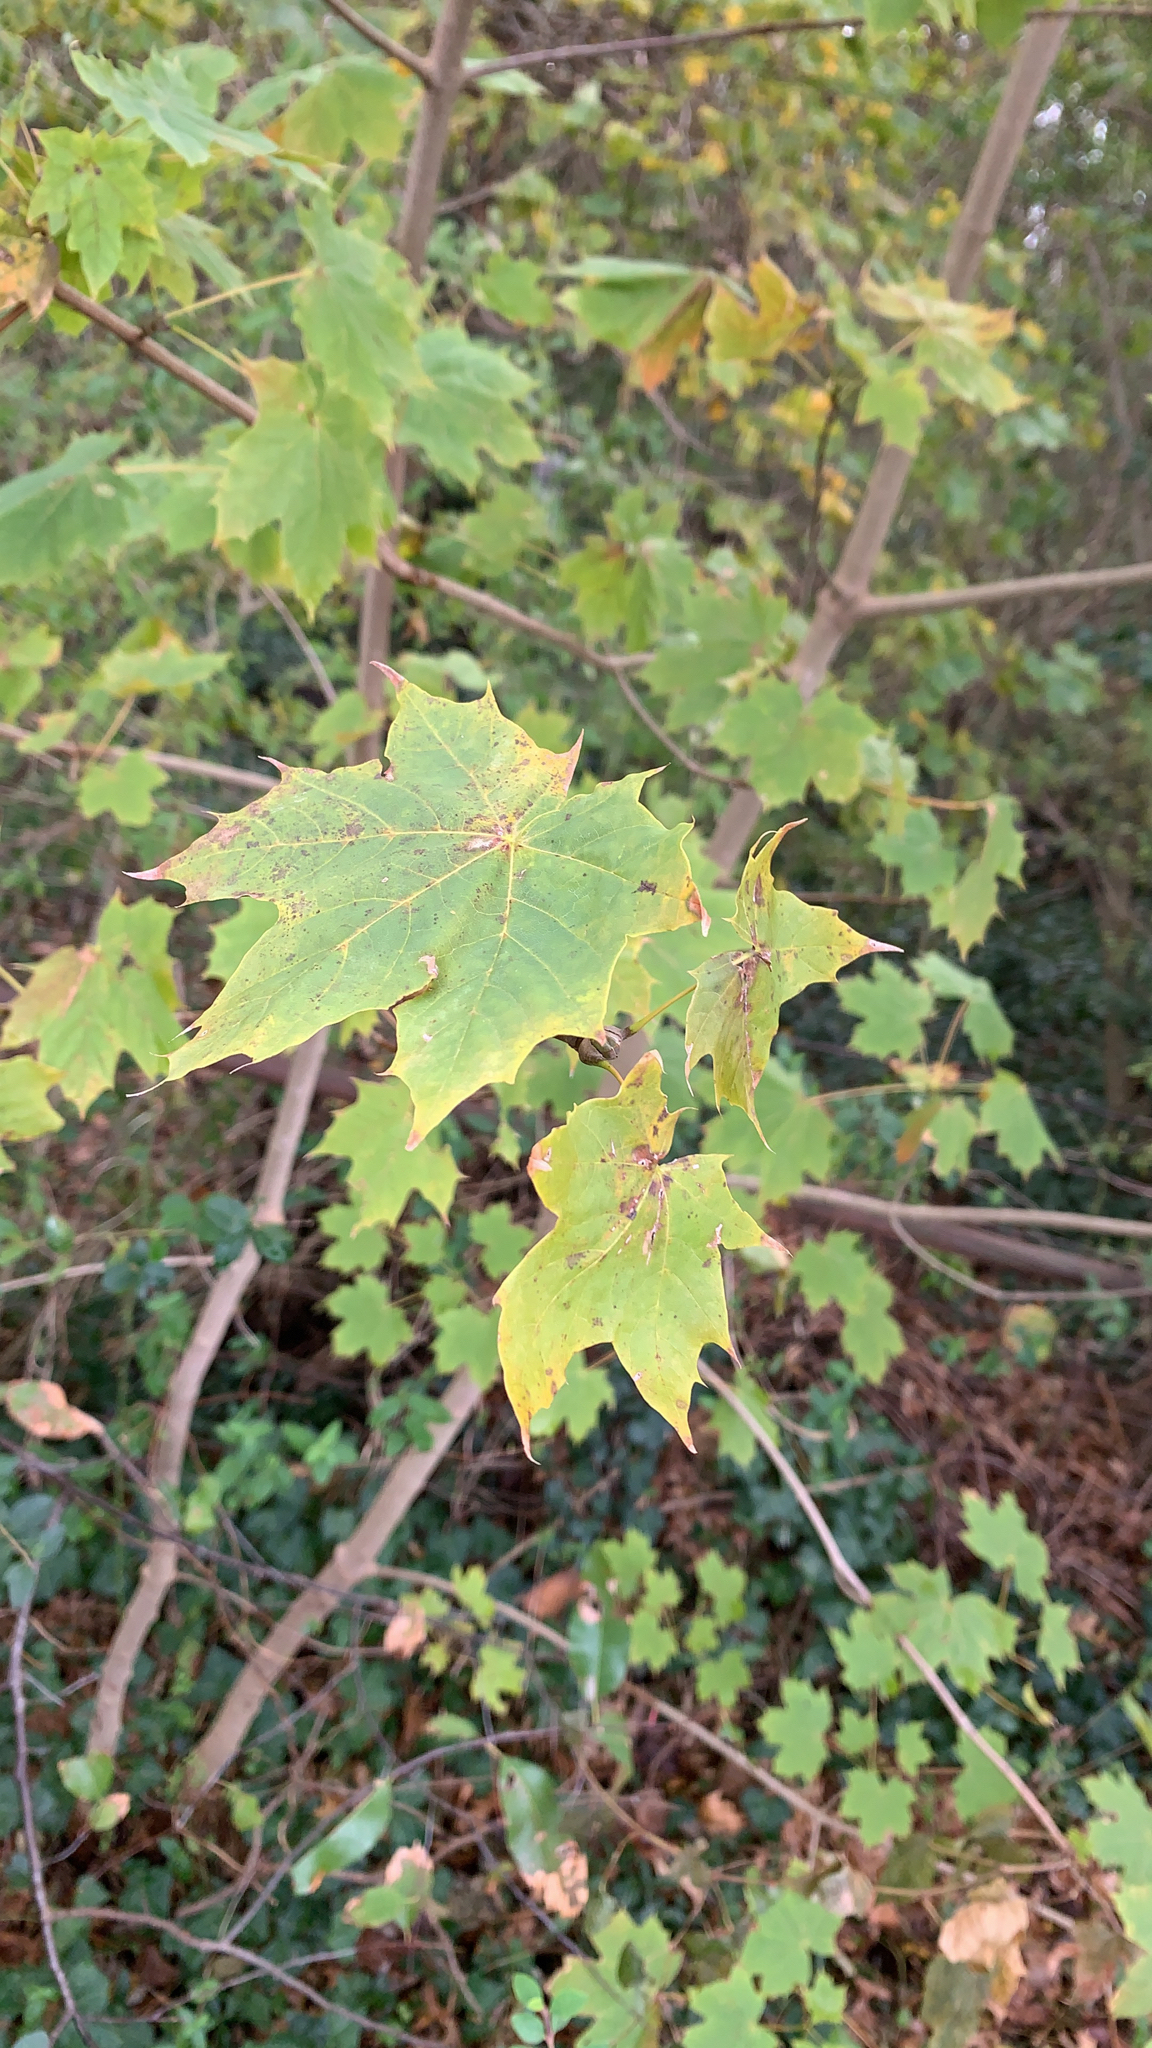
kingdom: Plantae
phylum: Tracheophyta
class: Magnoliopsida
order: Sapindales
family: Sapindaceae
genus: Acer
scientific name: Acer platanoides
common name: Norway maple
